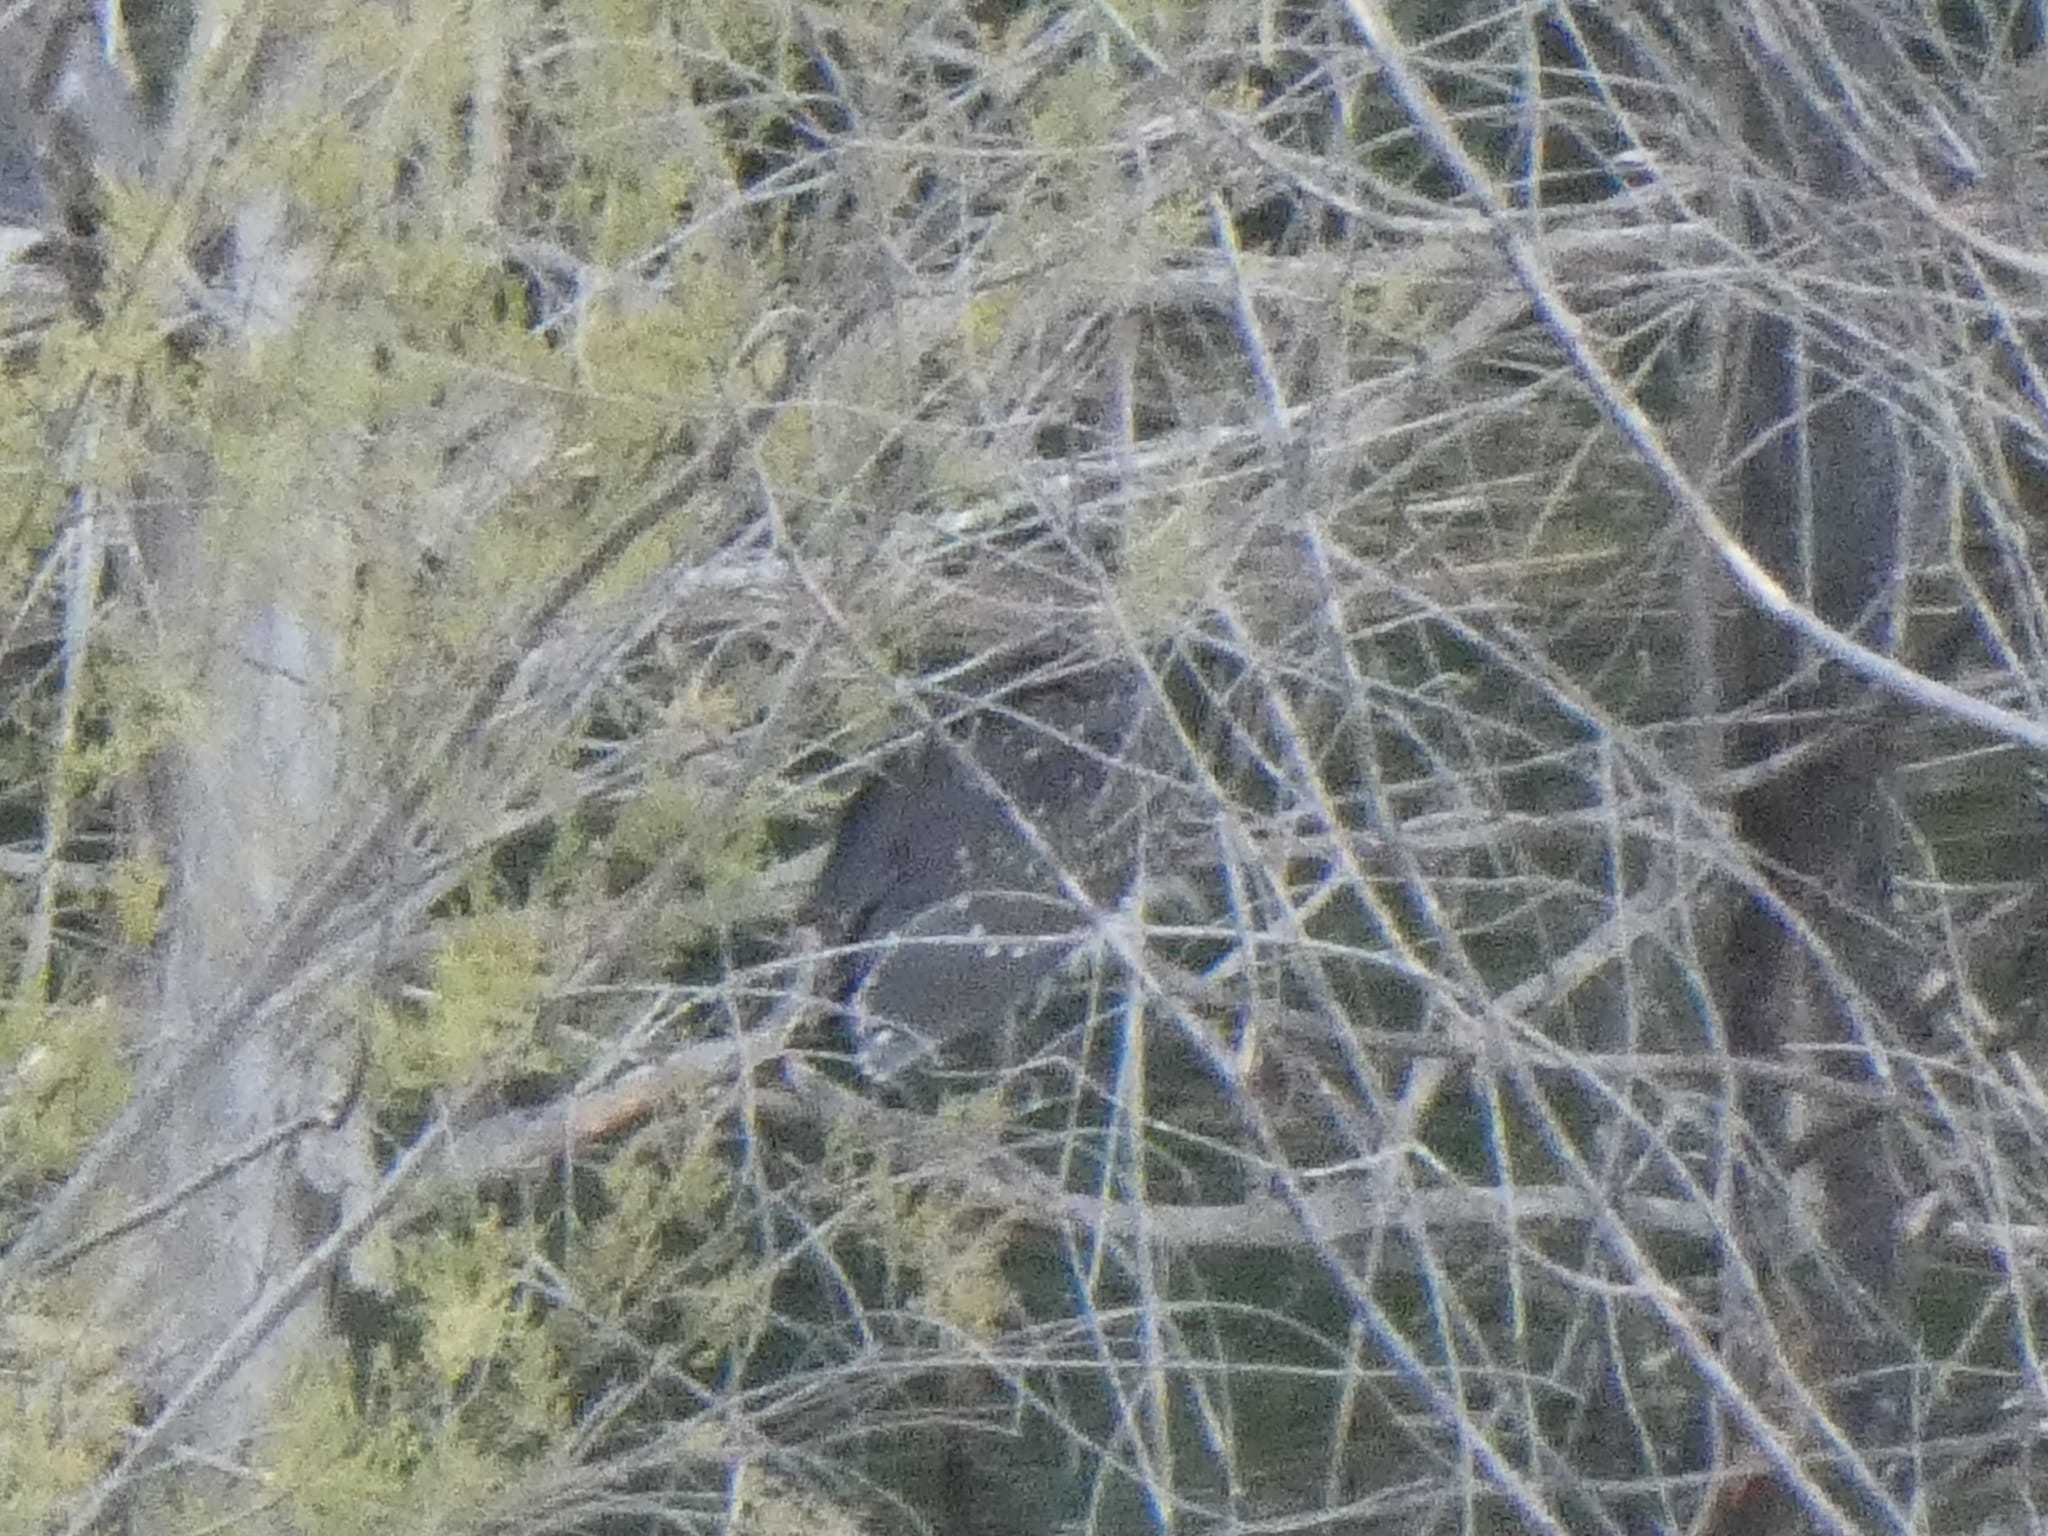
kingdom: Animalia
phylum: Chordata
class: Aves
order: Pelecaniformes
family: Ardeidae
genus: Nycticorax
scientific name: Nycticorax nycticorax
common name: Black-crowned night heron
